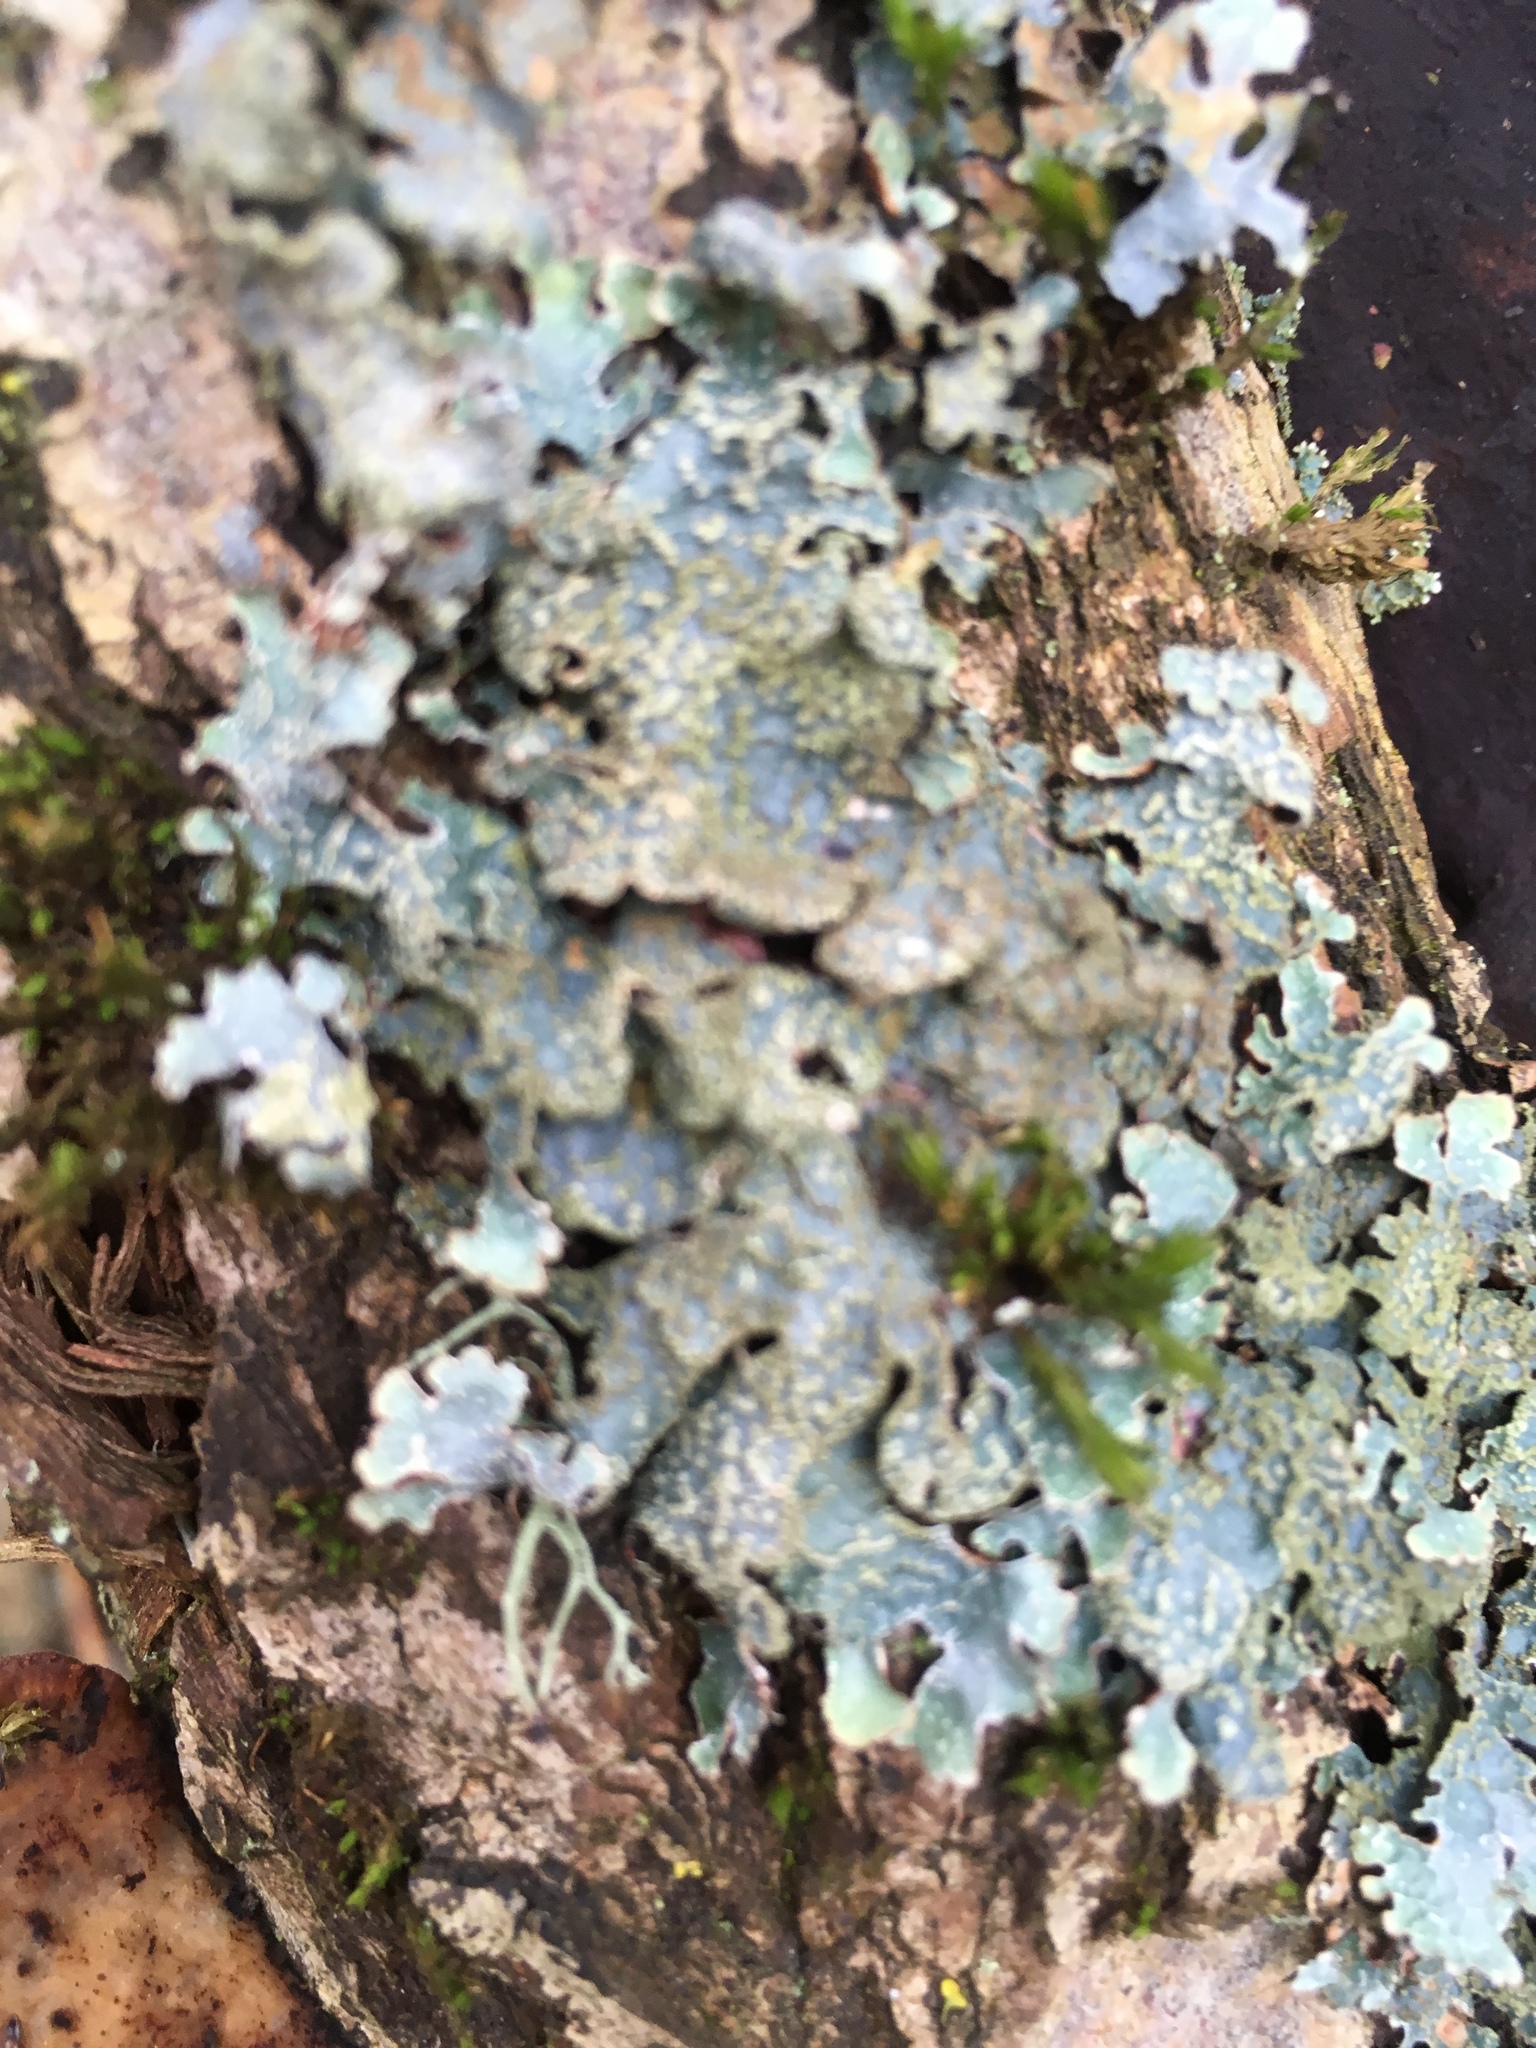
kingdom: Fungi
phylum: Ascomycota
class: Lecanoromycetes
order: Lecanorales
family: Parmeliaceae
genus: Parmelia
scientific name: Parmelia sulcata
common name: Netted shield lichen
